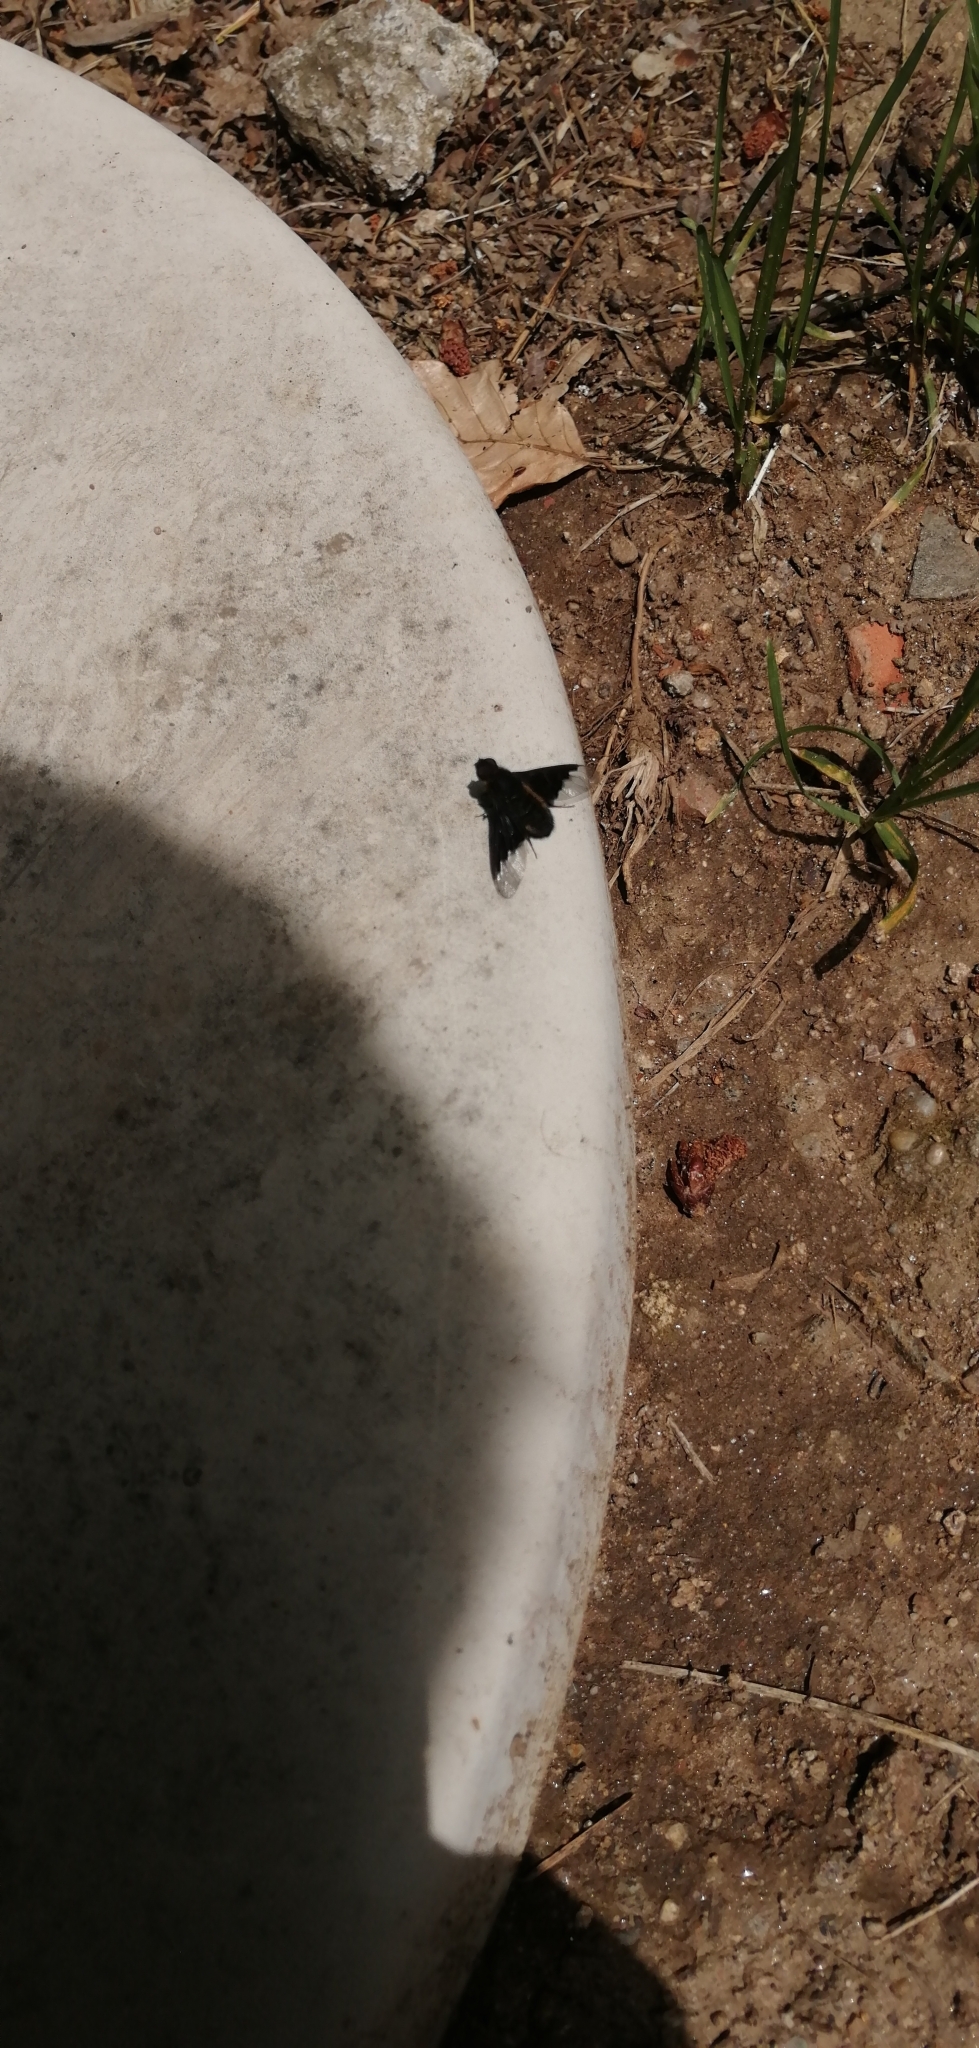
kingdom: Animalia
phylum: Arthropoda
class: Insecta
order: Diptera
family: Bombyliidae
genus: Hemipenthes
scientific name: Hemipenthes morio
